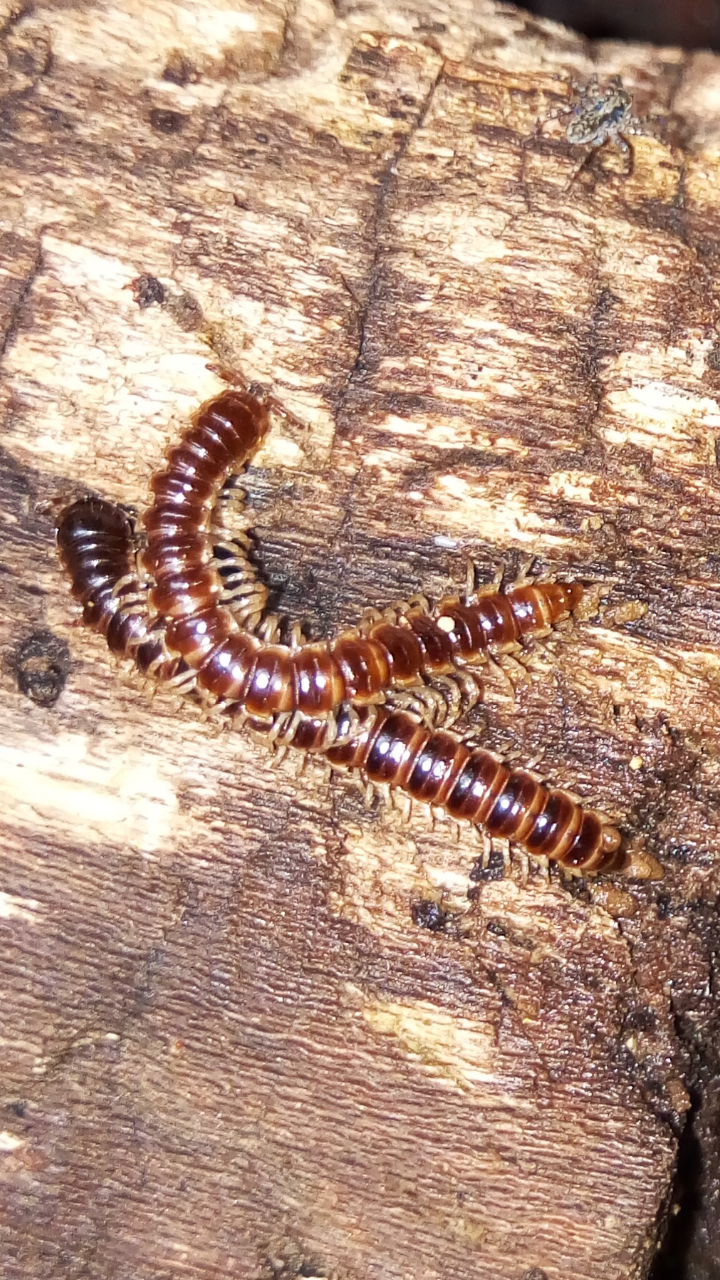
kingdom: Animalia
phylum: Arthropoda
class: Diplopoda
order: Polydesmida
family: Paradoxosomatidae
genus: Oxidus
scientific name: Oxidus gracilis
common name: Greenhouse millipede
